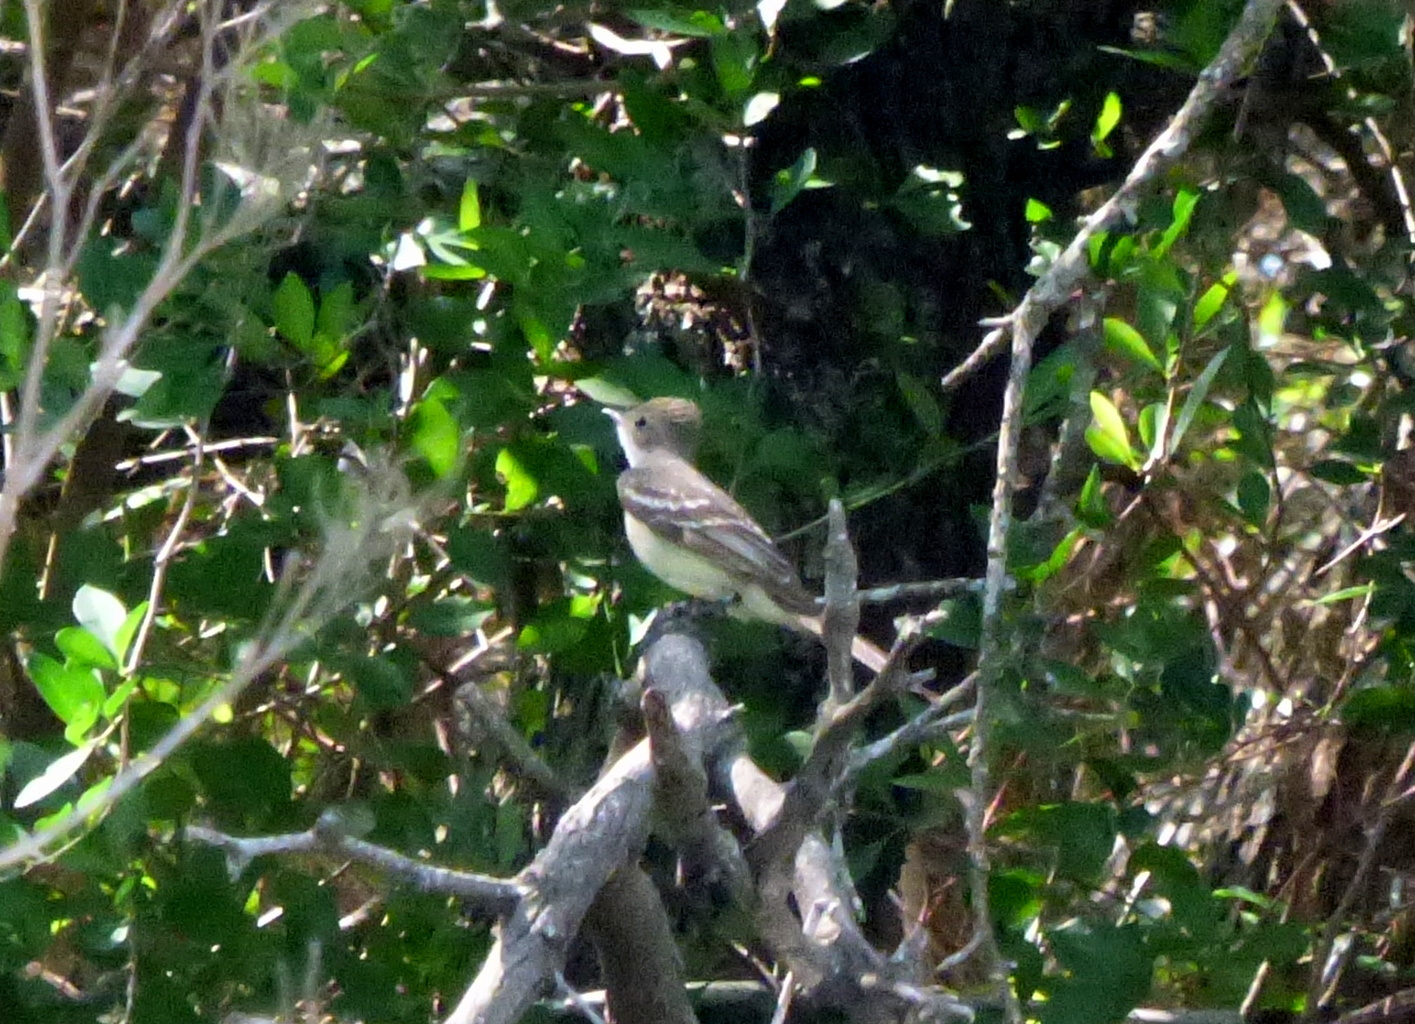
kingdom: Animalia
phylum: Chordata
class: Aves
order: Passeriformes
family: Tyrannidae
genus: Elaenia
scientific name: Elaenia spectabilis
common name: Large elaenia
